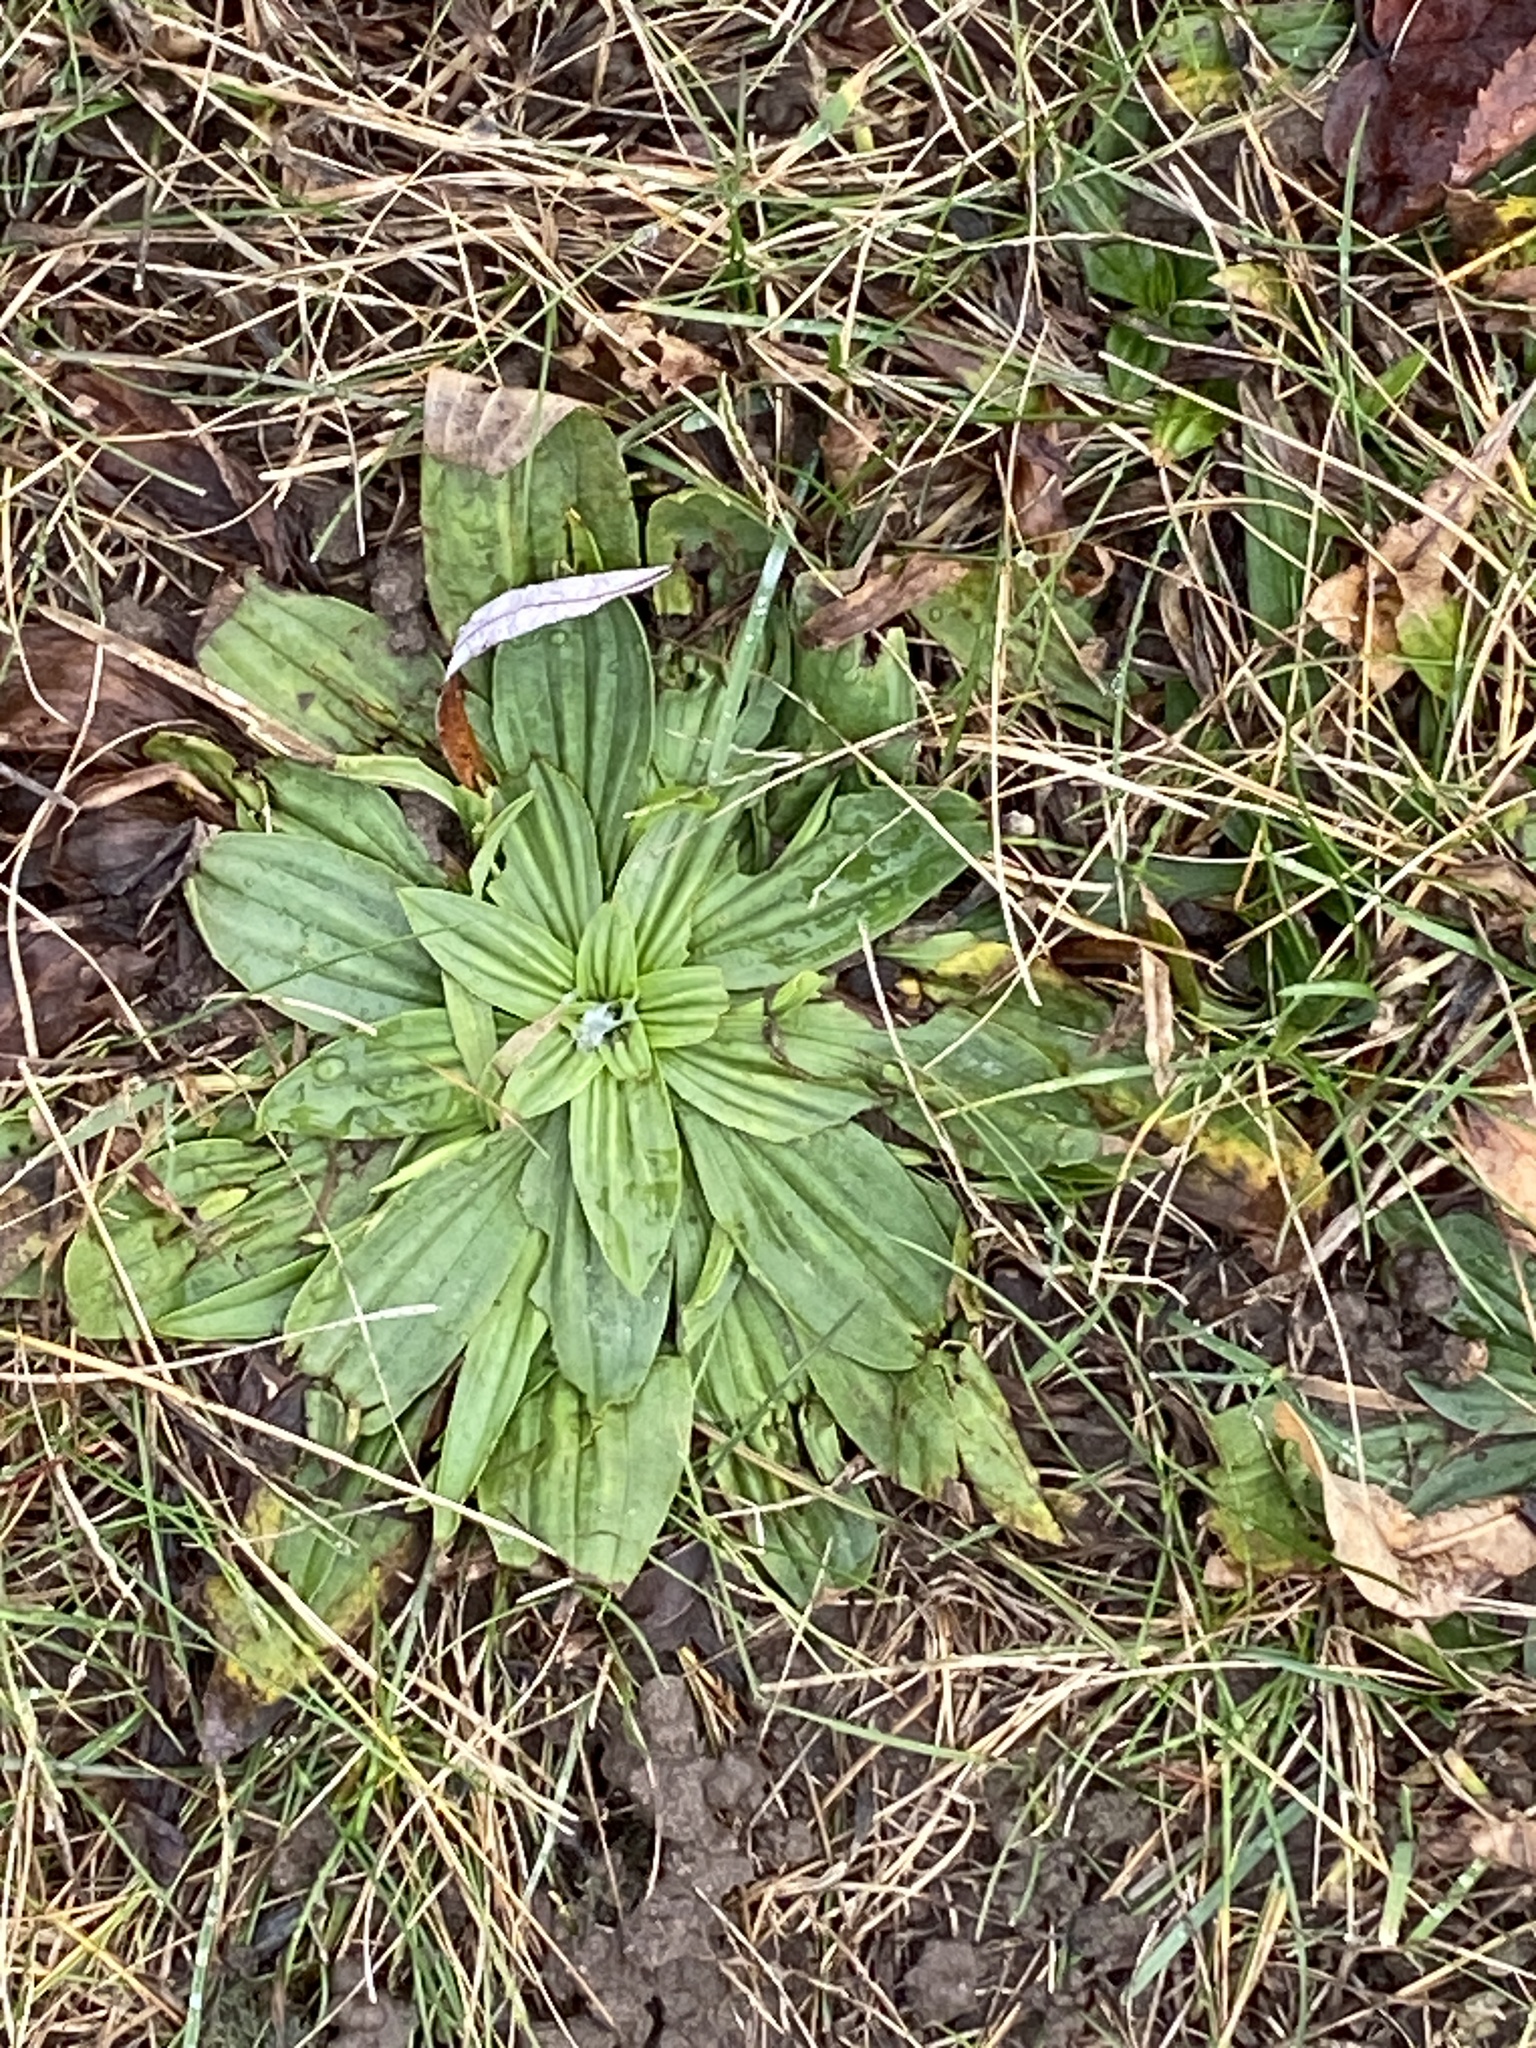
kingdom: Plantae
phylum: Tracheophyta
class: Magnoliopsida
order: Lamiales
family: Plantaginaceae
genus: Plantago
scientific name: Plantago lanceolata
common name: Ribwort plantain
